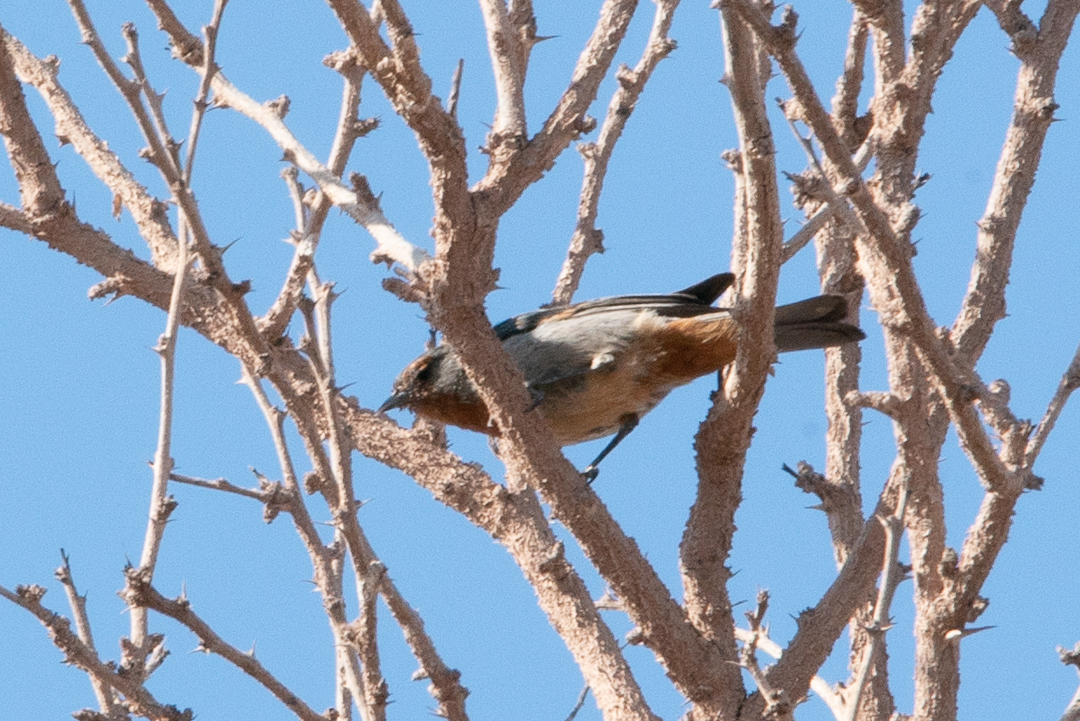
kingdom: Animalia
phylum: Chordata
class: Aves
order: Passeriformes
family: Thraupidae
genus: Conirostrum
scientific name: Conirostrum tamarugense
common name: Tamarugo conebill
